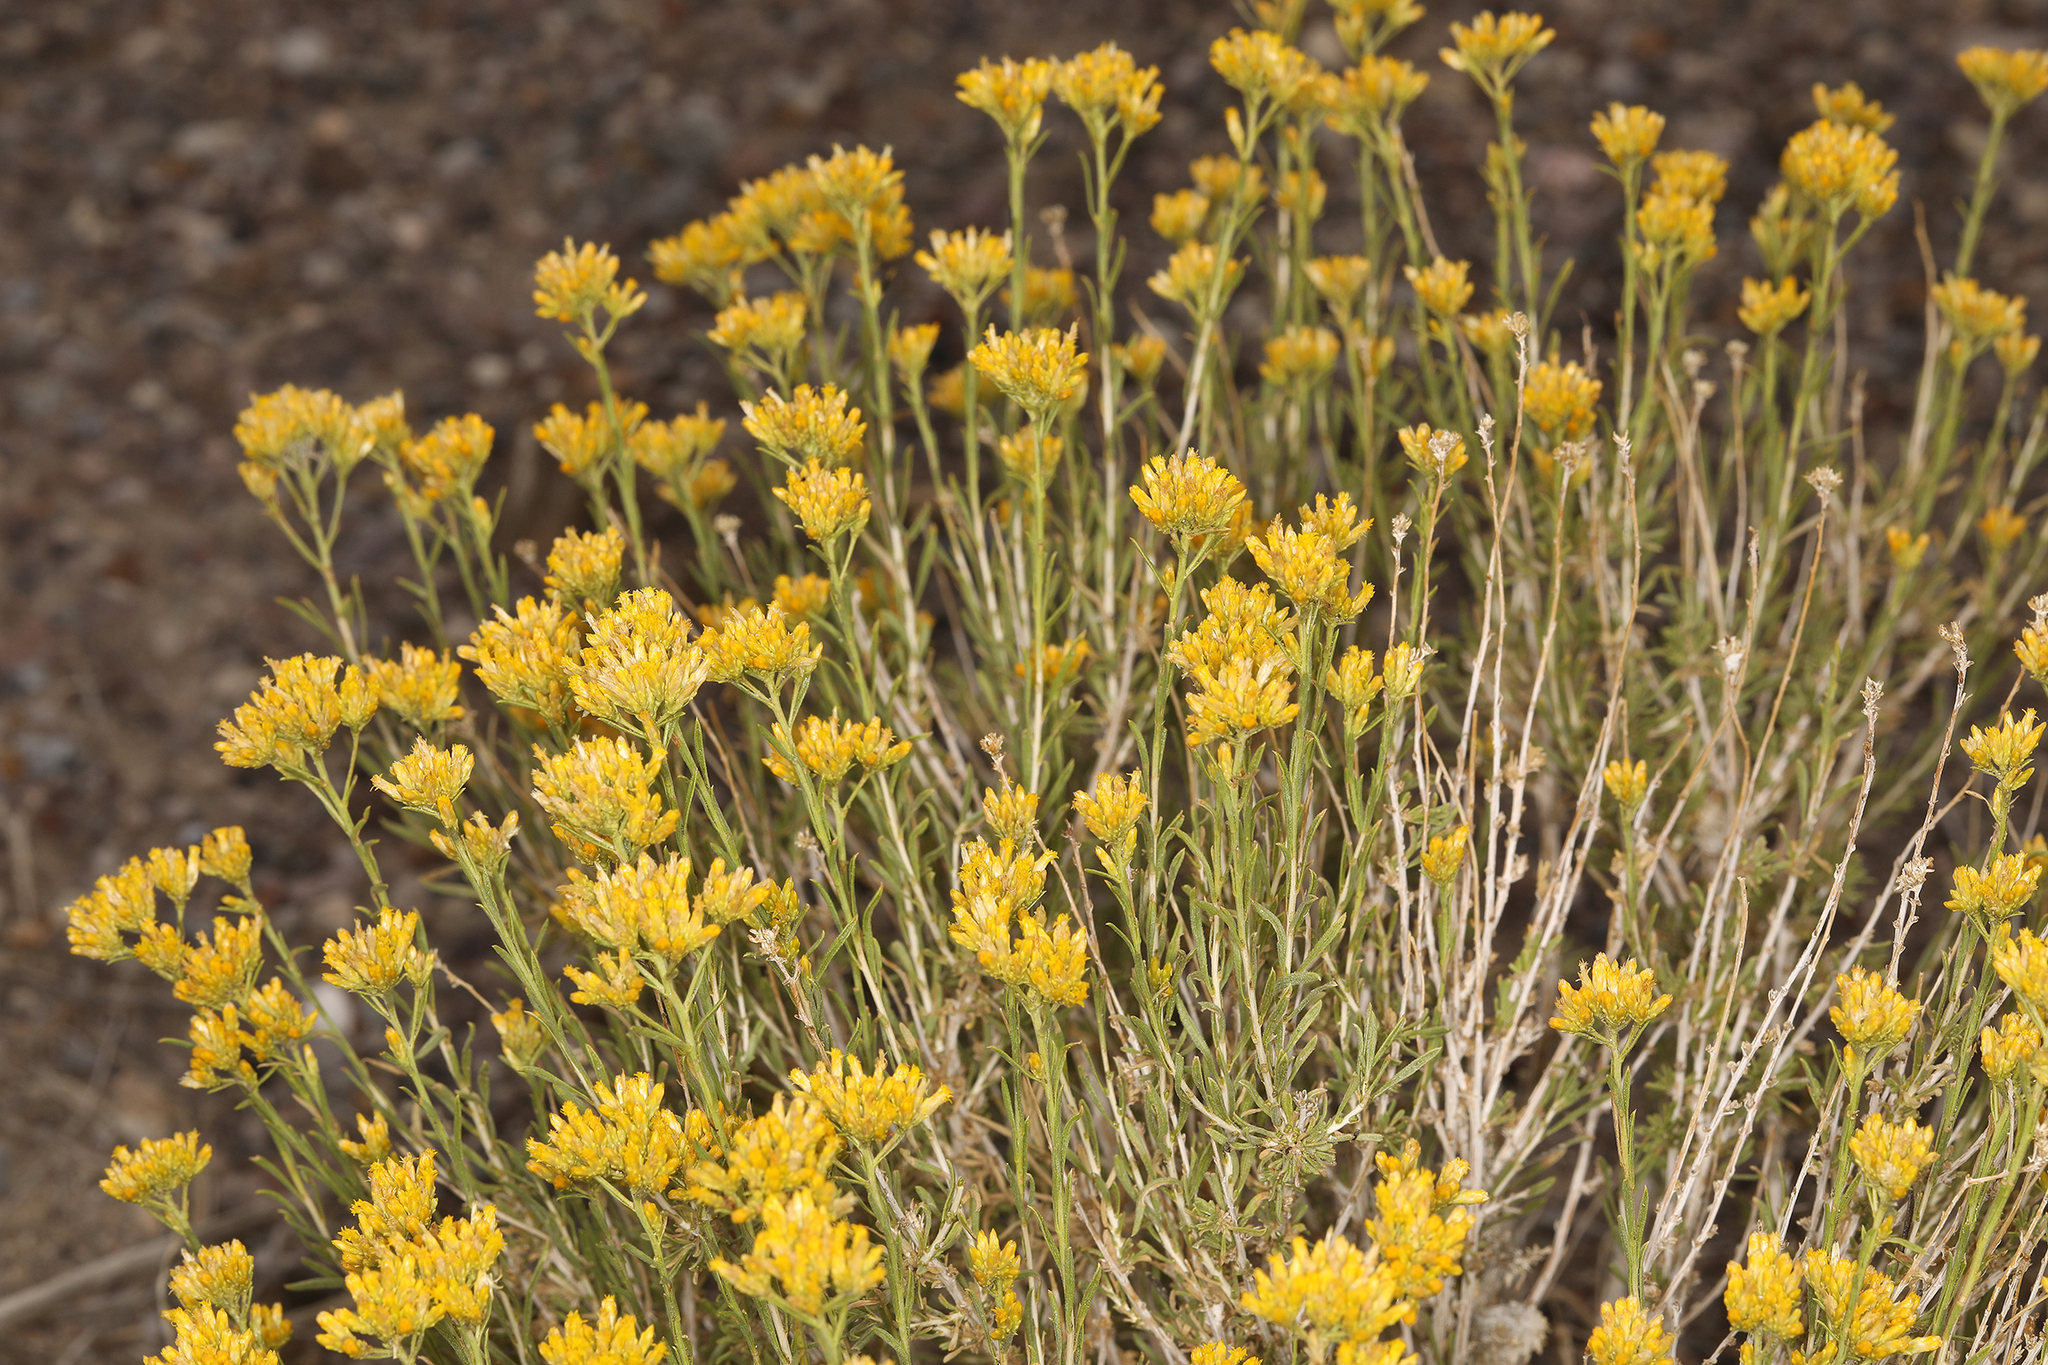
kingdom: Plantae
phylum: Tracheophyta
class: Magnoliopsida
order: Asterales
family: Asteraceae
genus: Chrysothamnus
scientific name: Chrysothamnus viscidiflorus
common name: Yellow rabbitbrush
